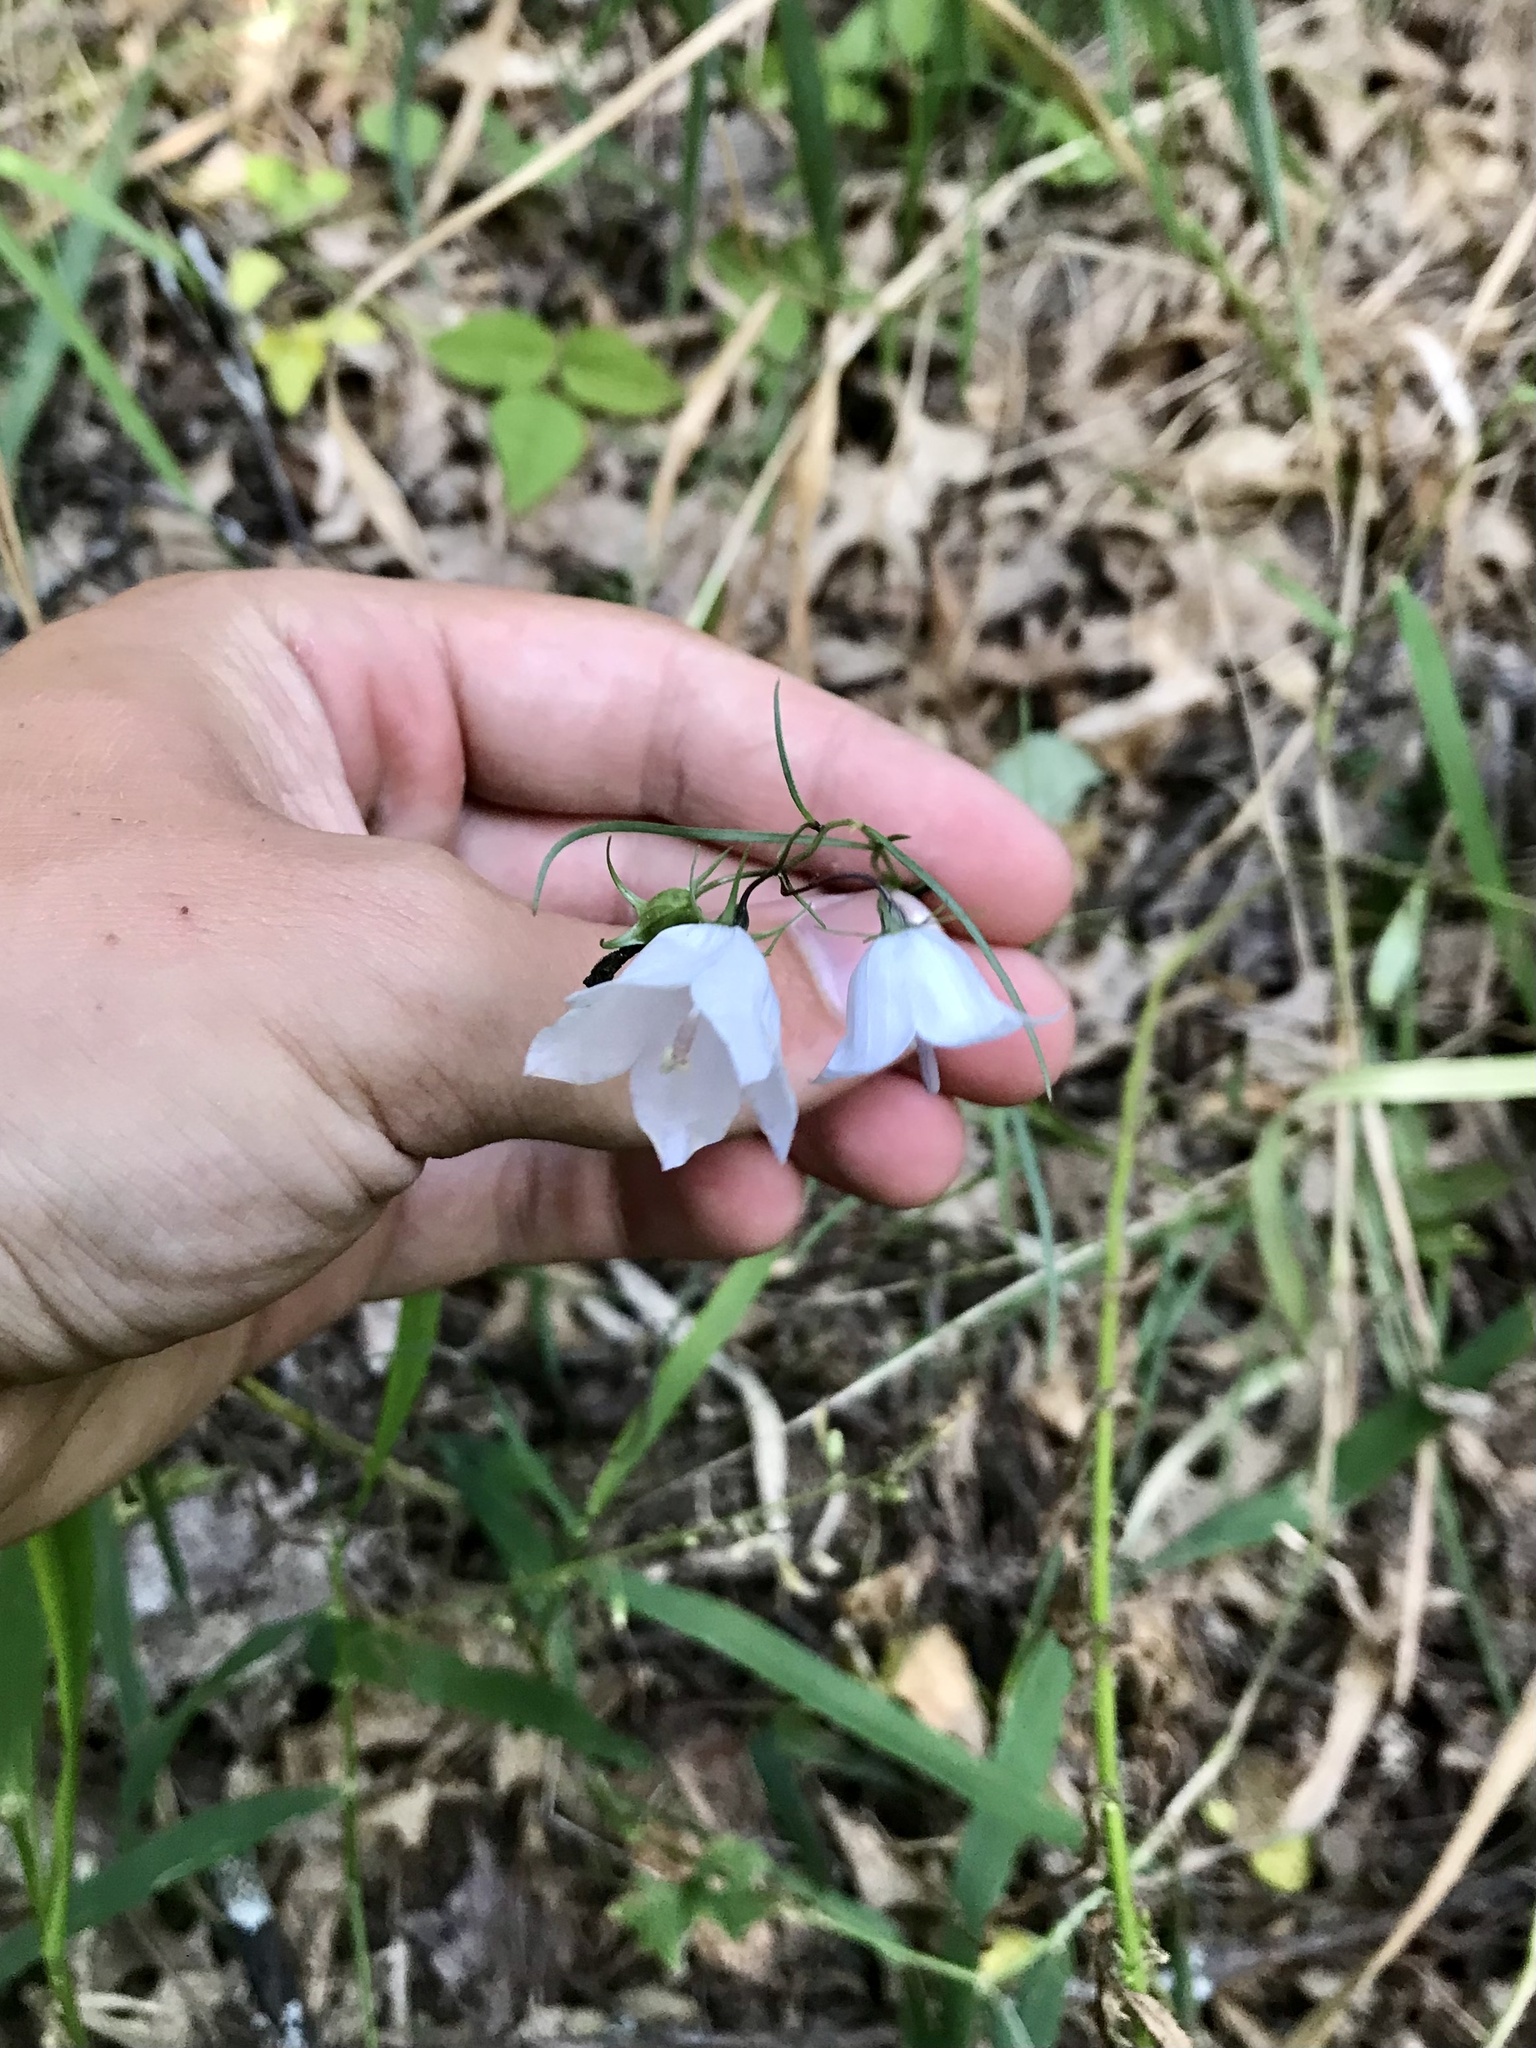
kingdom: Plantae
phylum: Tracheophyta
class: Magnoliopsida
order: Asterales
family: Campanulaceae
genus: Campanula
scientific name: Campanula intercedens
